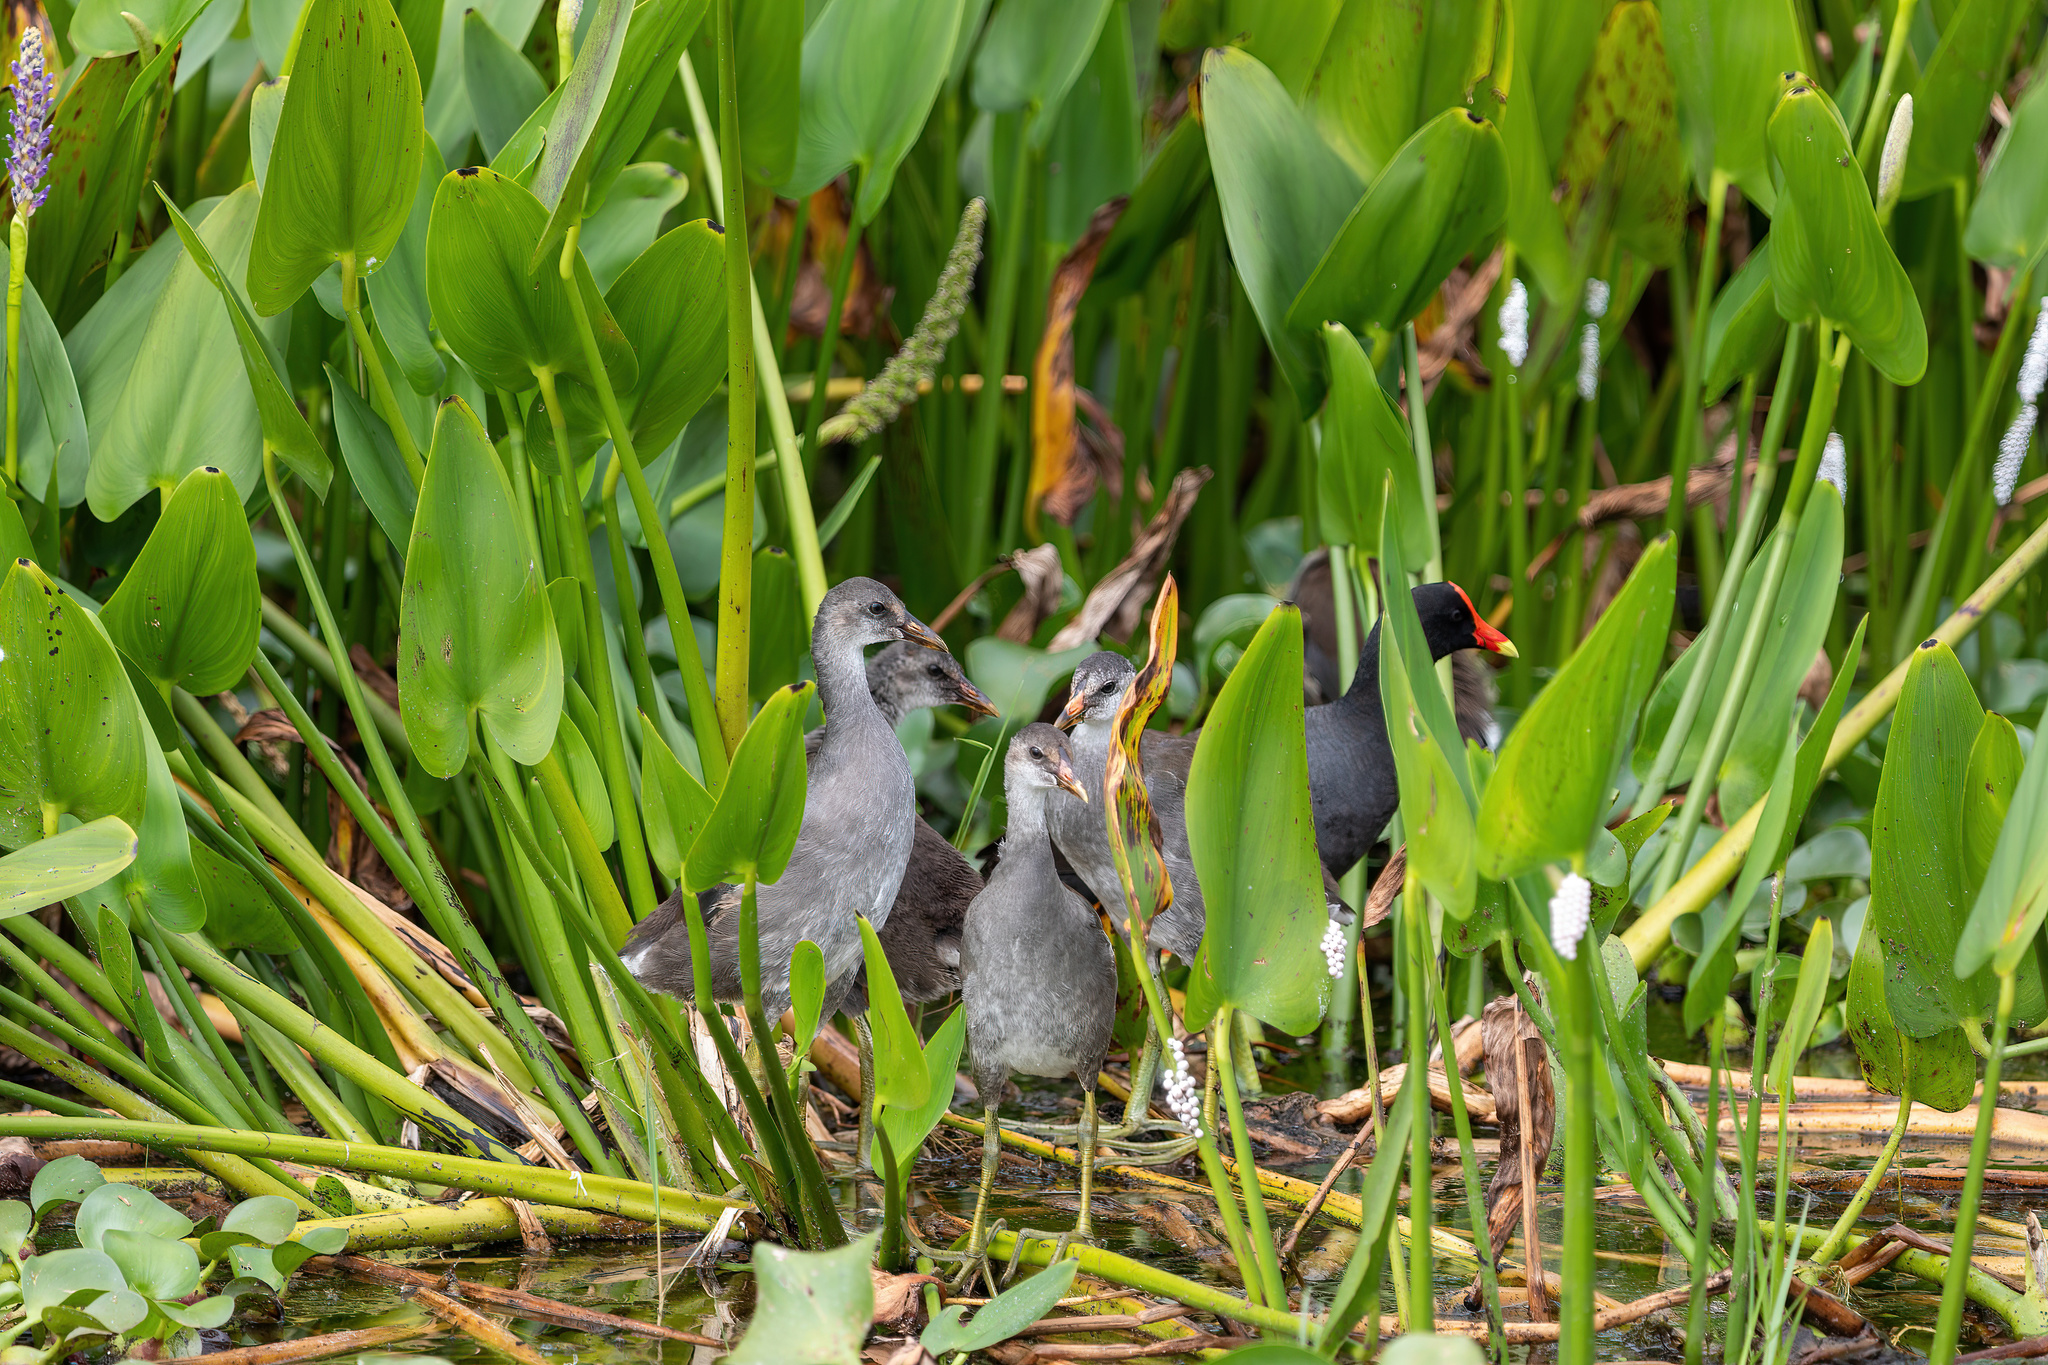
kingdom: Animalia
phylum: Chordata
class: Aves
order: Gruiformes
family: Rallidae
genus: Gallinula
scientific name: Gallinula chloropus
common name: Common moorhen
